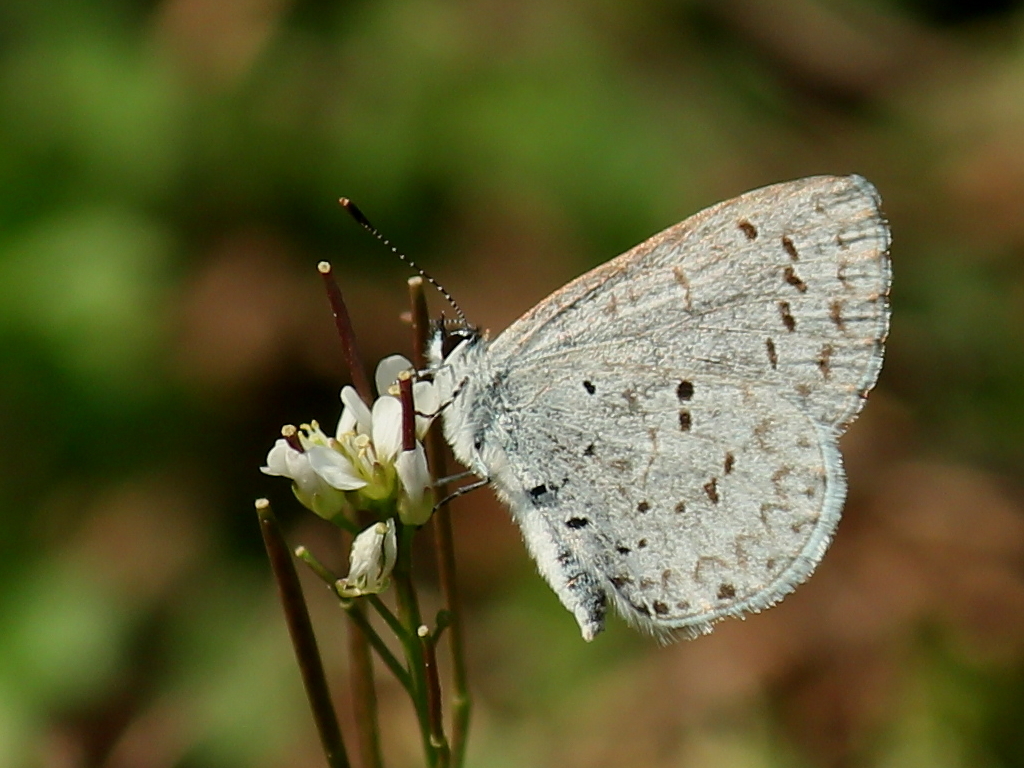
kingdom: Animalia
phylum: Arthropoda
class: Insecta
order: Lepidoptera
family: Lycaenidae
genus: Celastrina
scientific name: Celastrina ladon
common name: Spring azure
